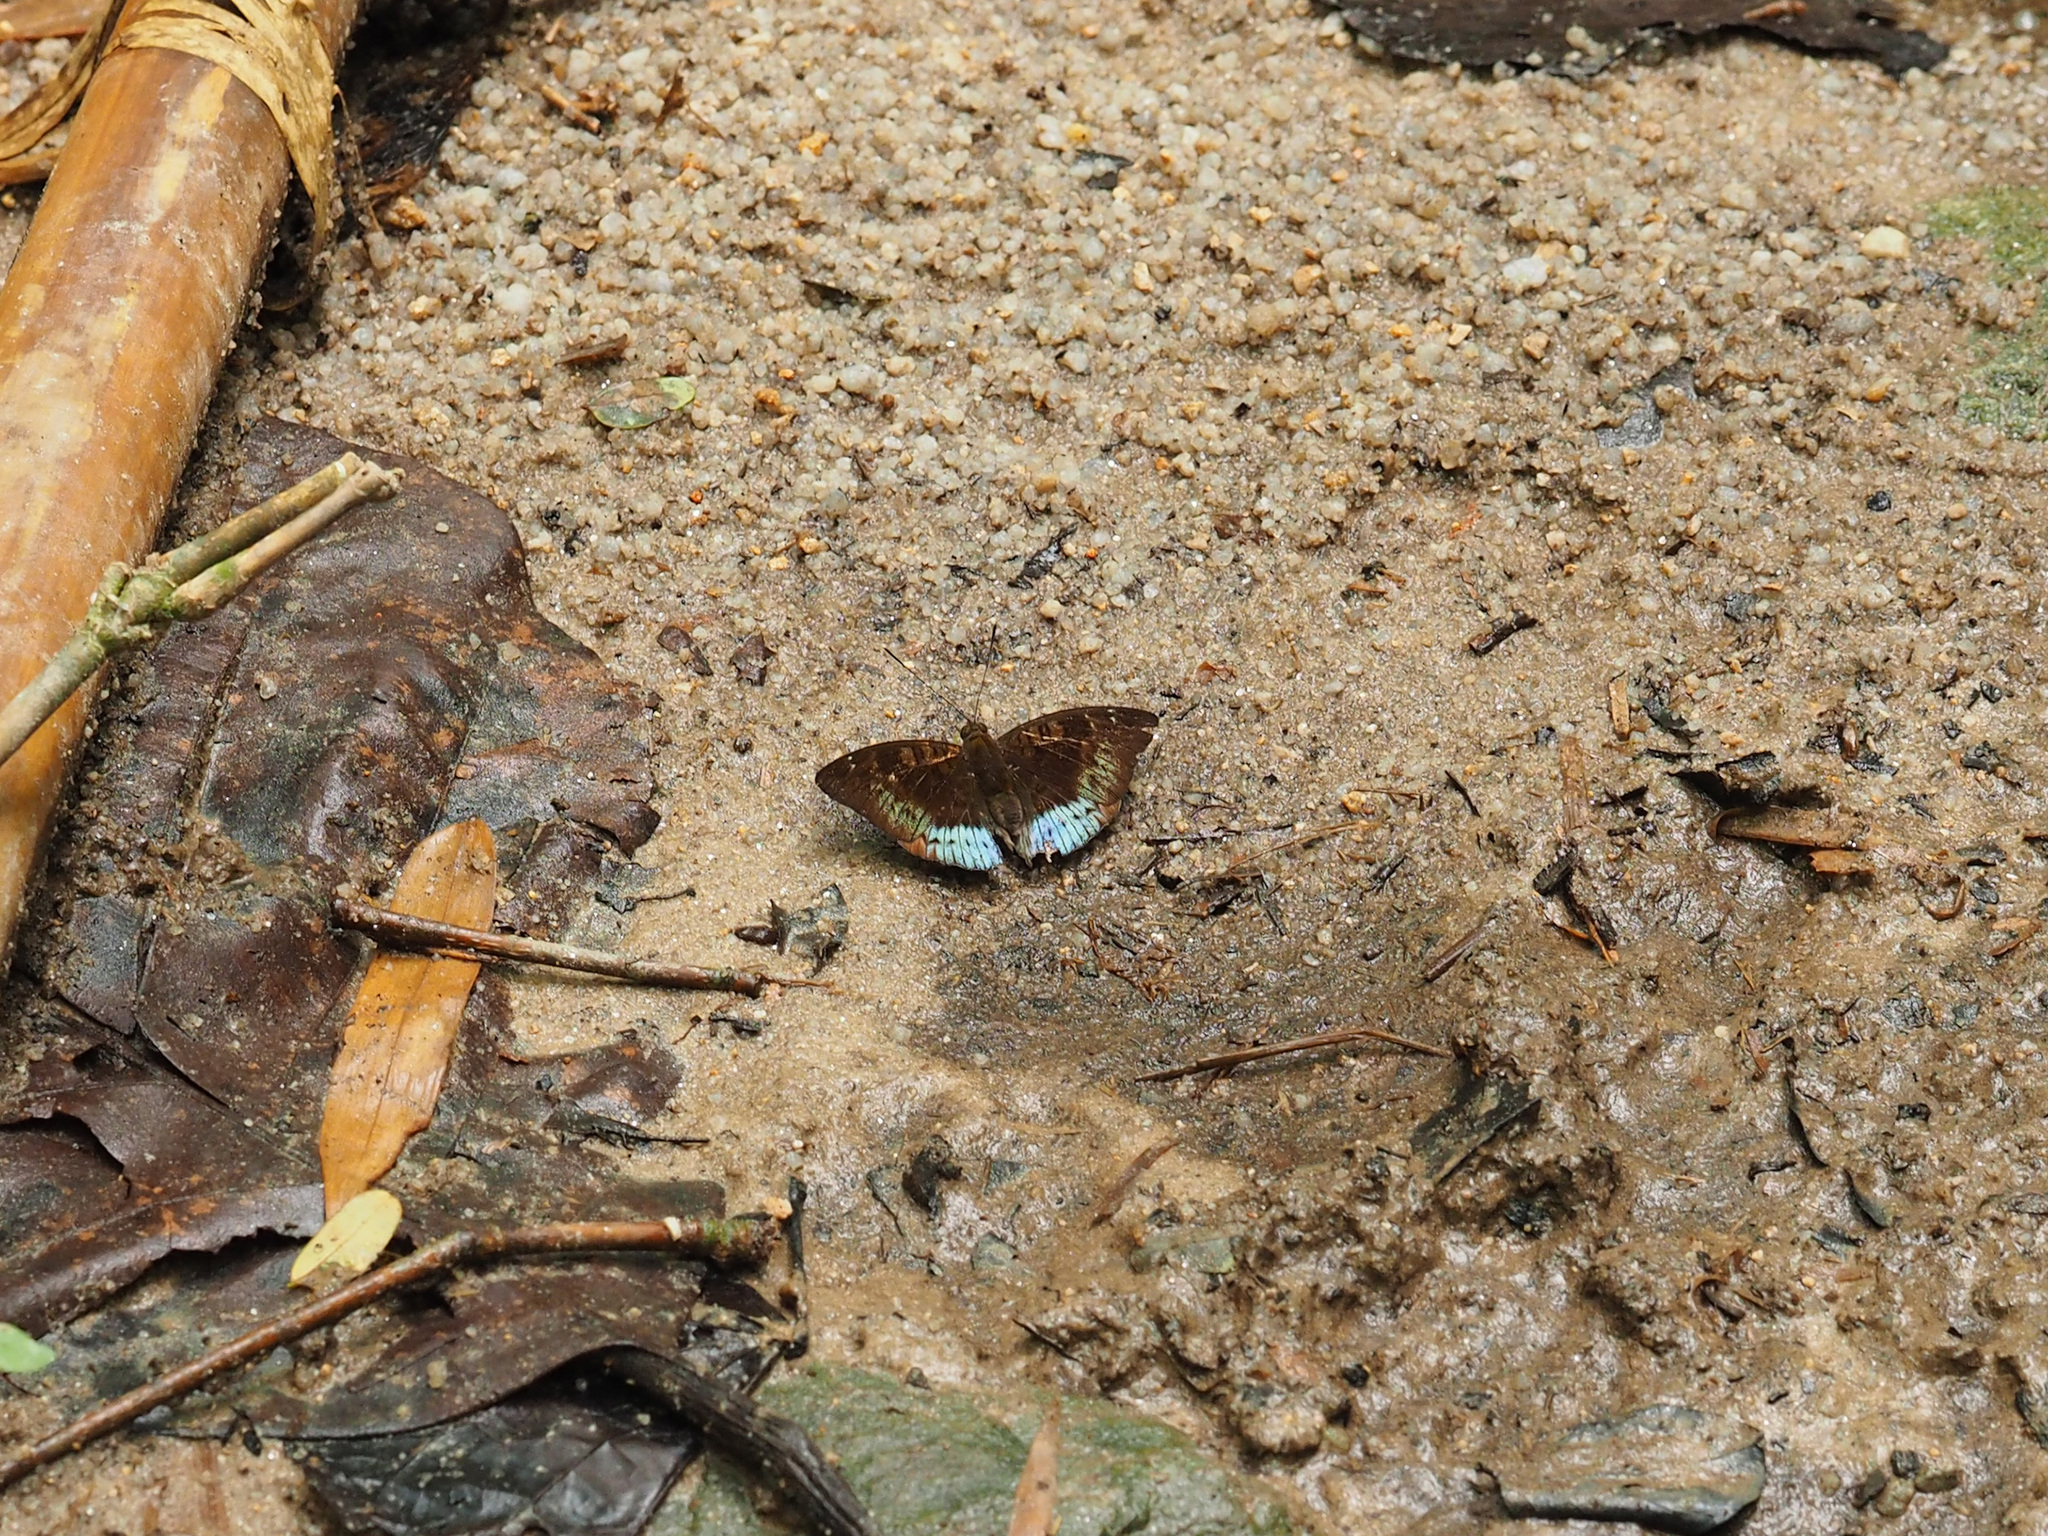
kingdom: Animalia
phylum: Arthropoda
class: Insecta
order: Lepidoptera
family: Nymphalidae
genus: Euthalia
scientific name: Euthalia monina
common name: Powdered baron
